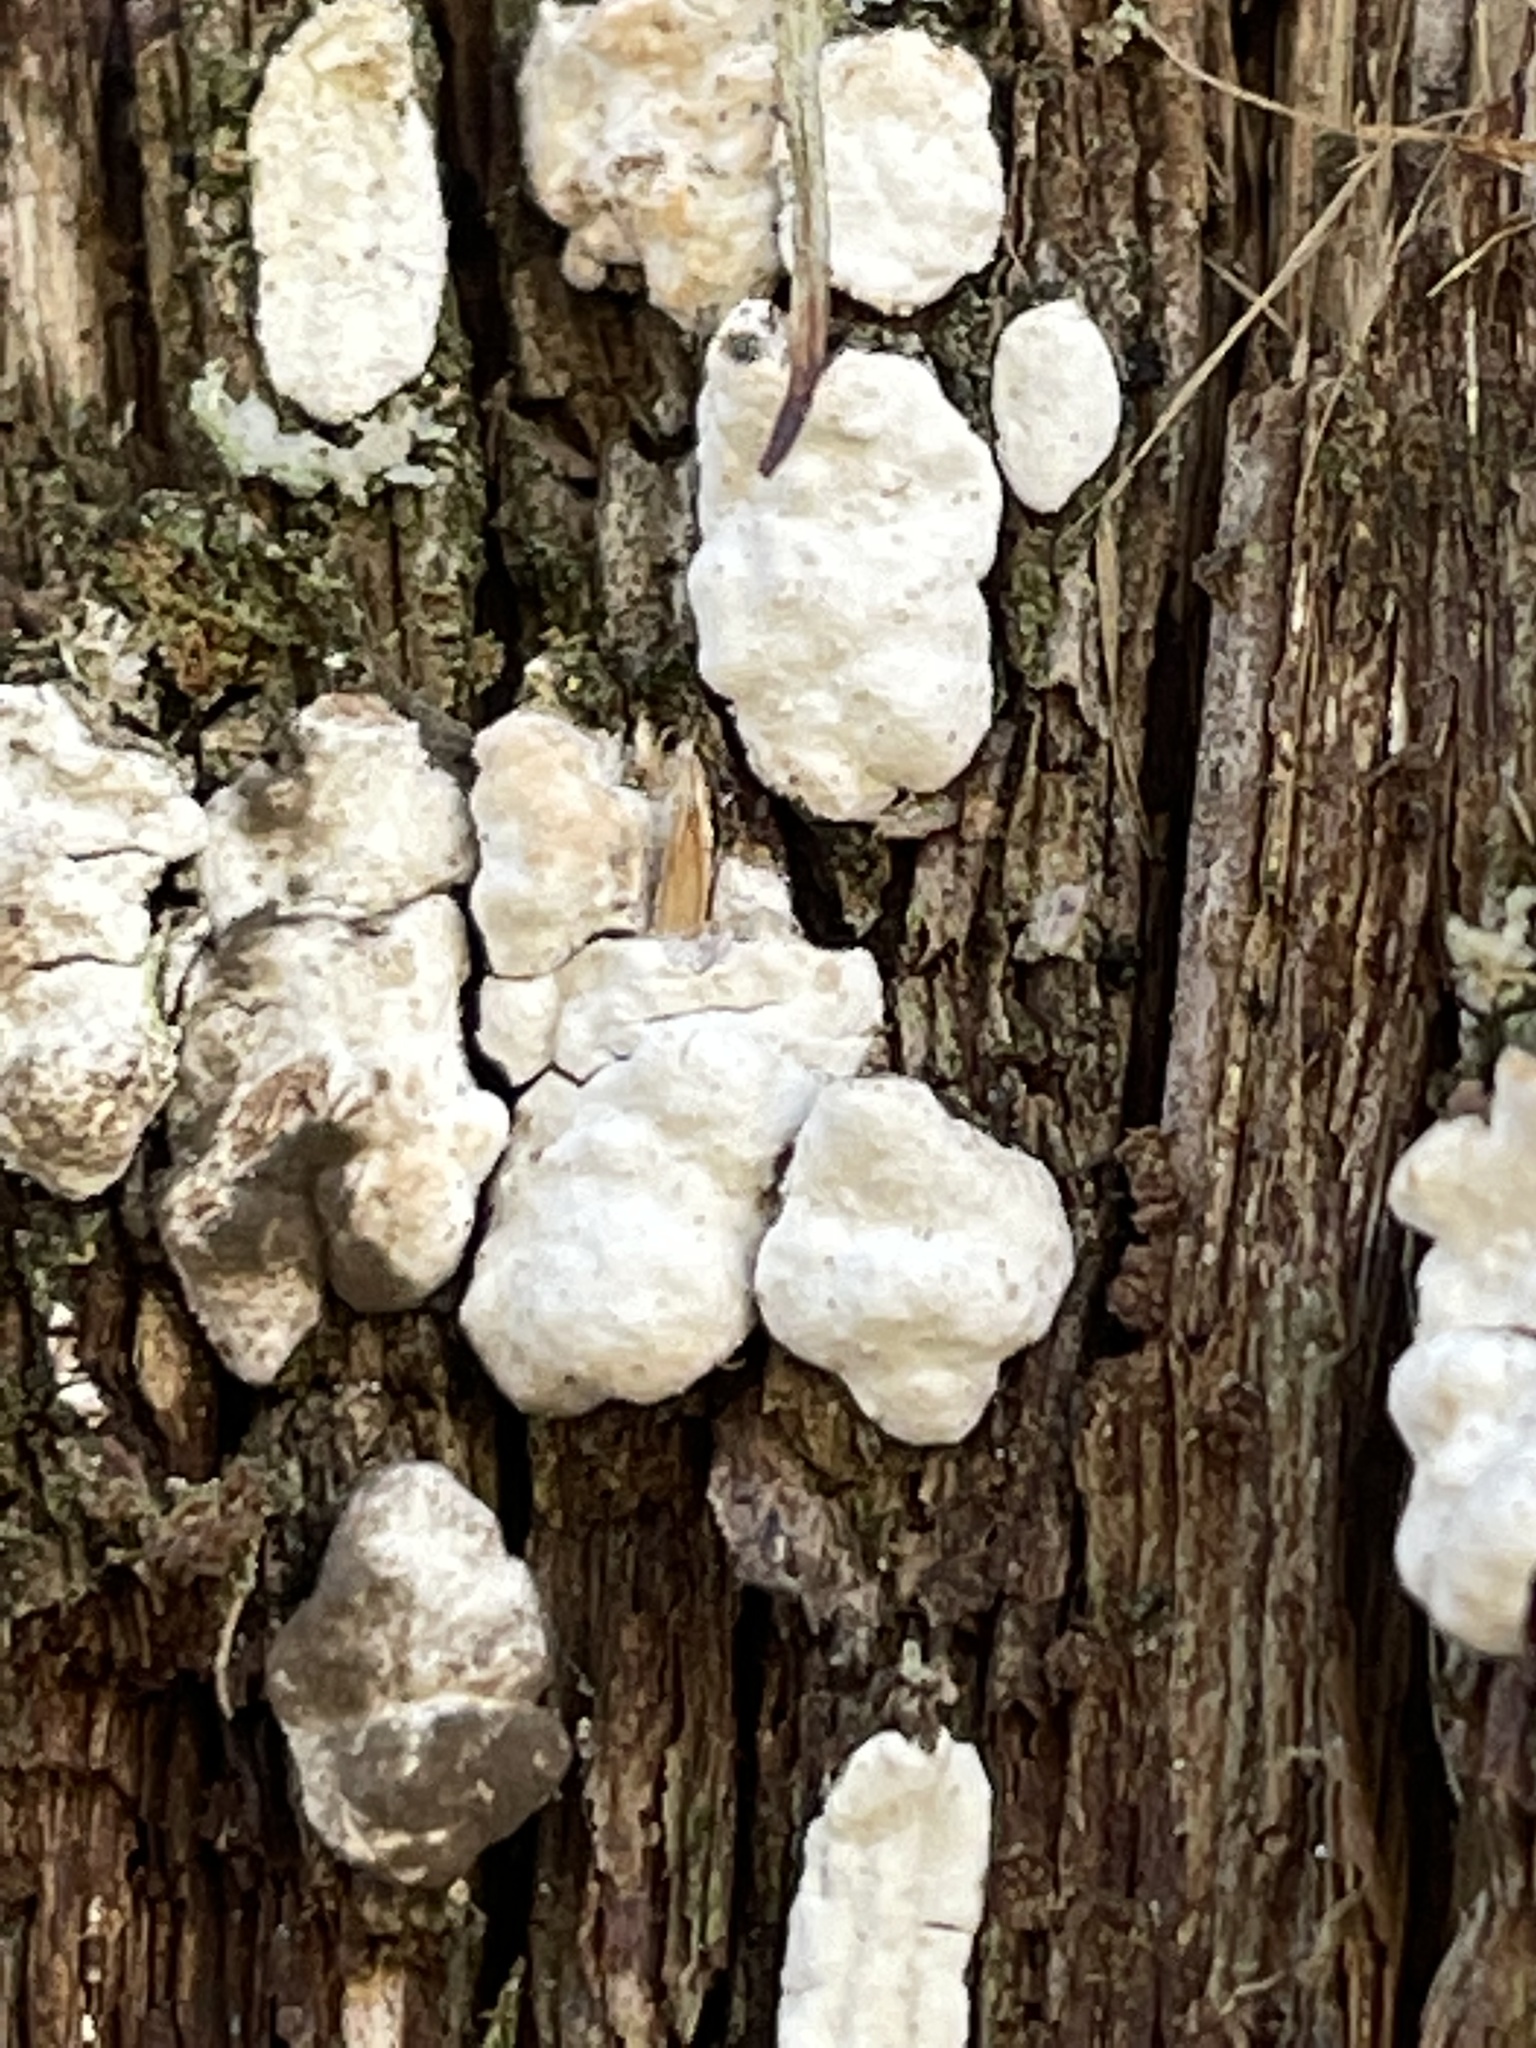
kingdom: Fungi
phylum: Basidiomycota
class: Agaricomycetes
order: Agaricales
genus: Dendrothele
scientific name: Dendrothele nivosa
